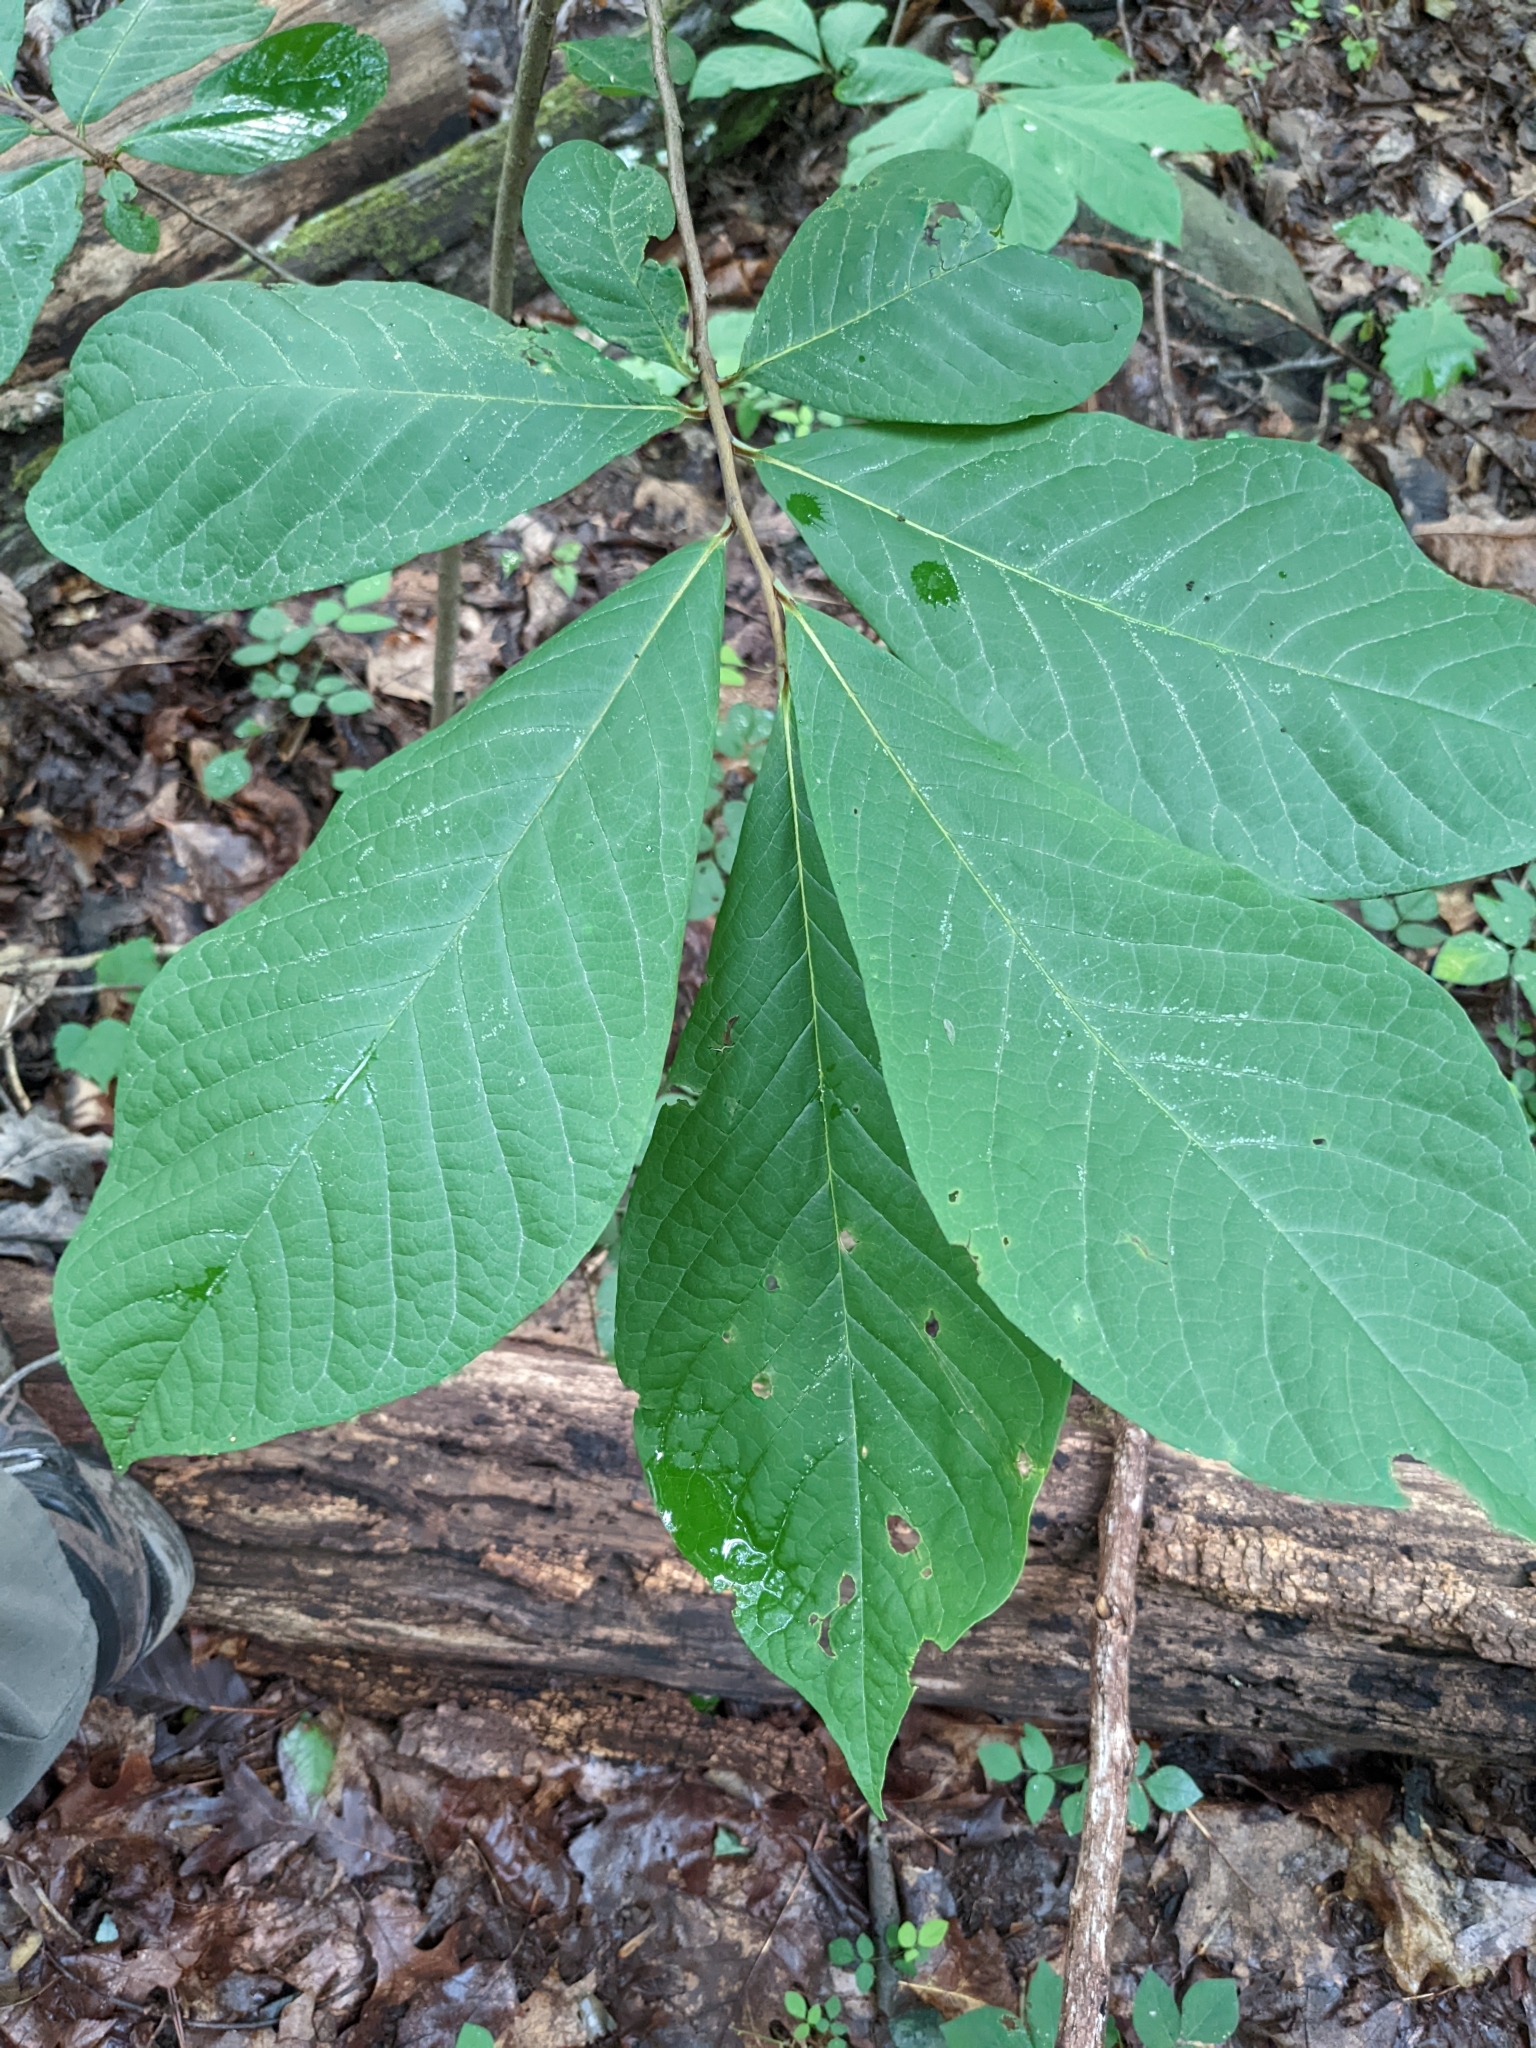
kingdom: Plantae
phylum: Tracheophyta
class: Magnoliopsida
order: Magnoliales
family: Annonaceae
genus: Asimina
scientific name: Asimina triloba
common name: Dog-banana
